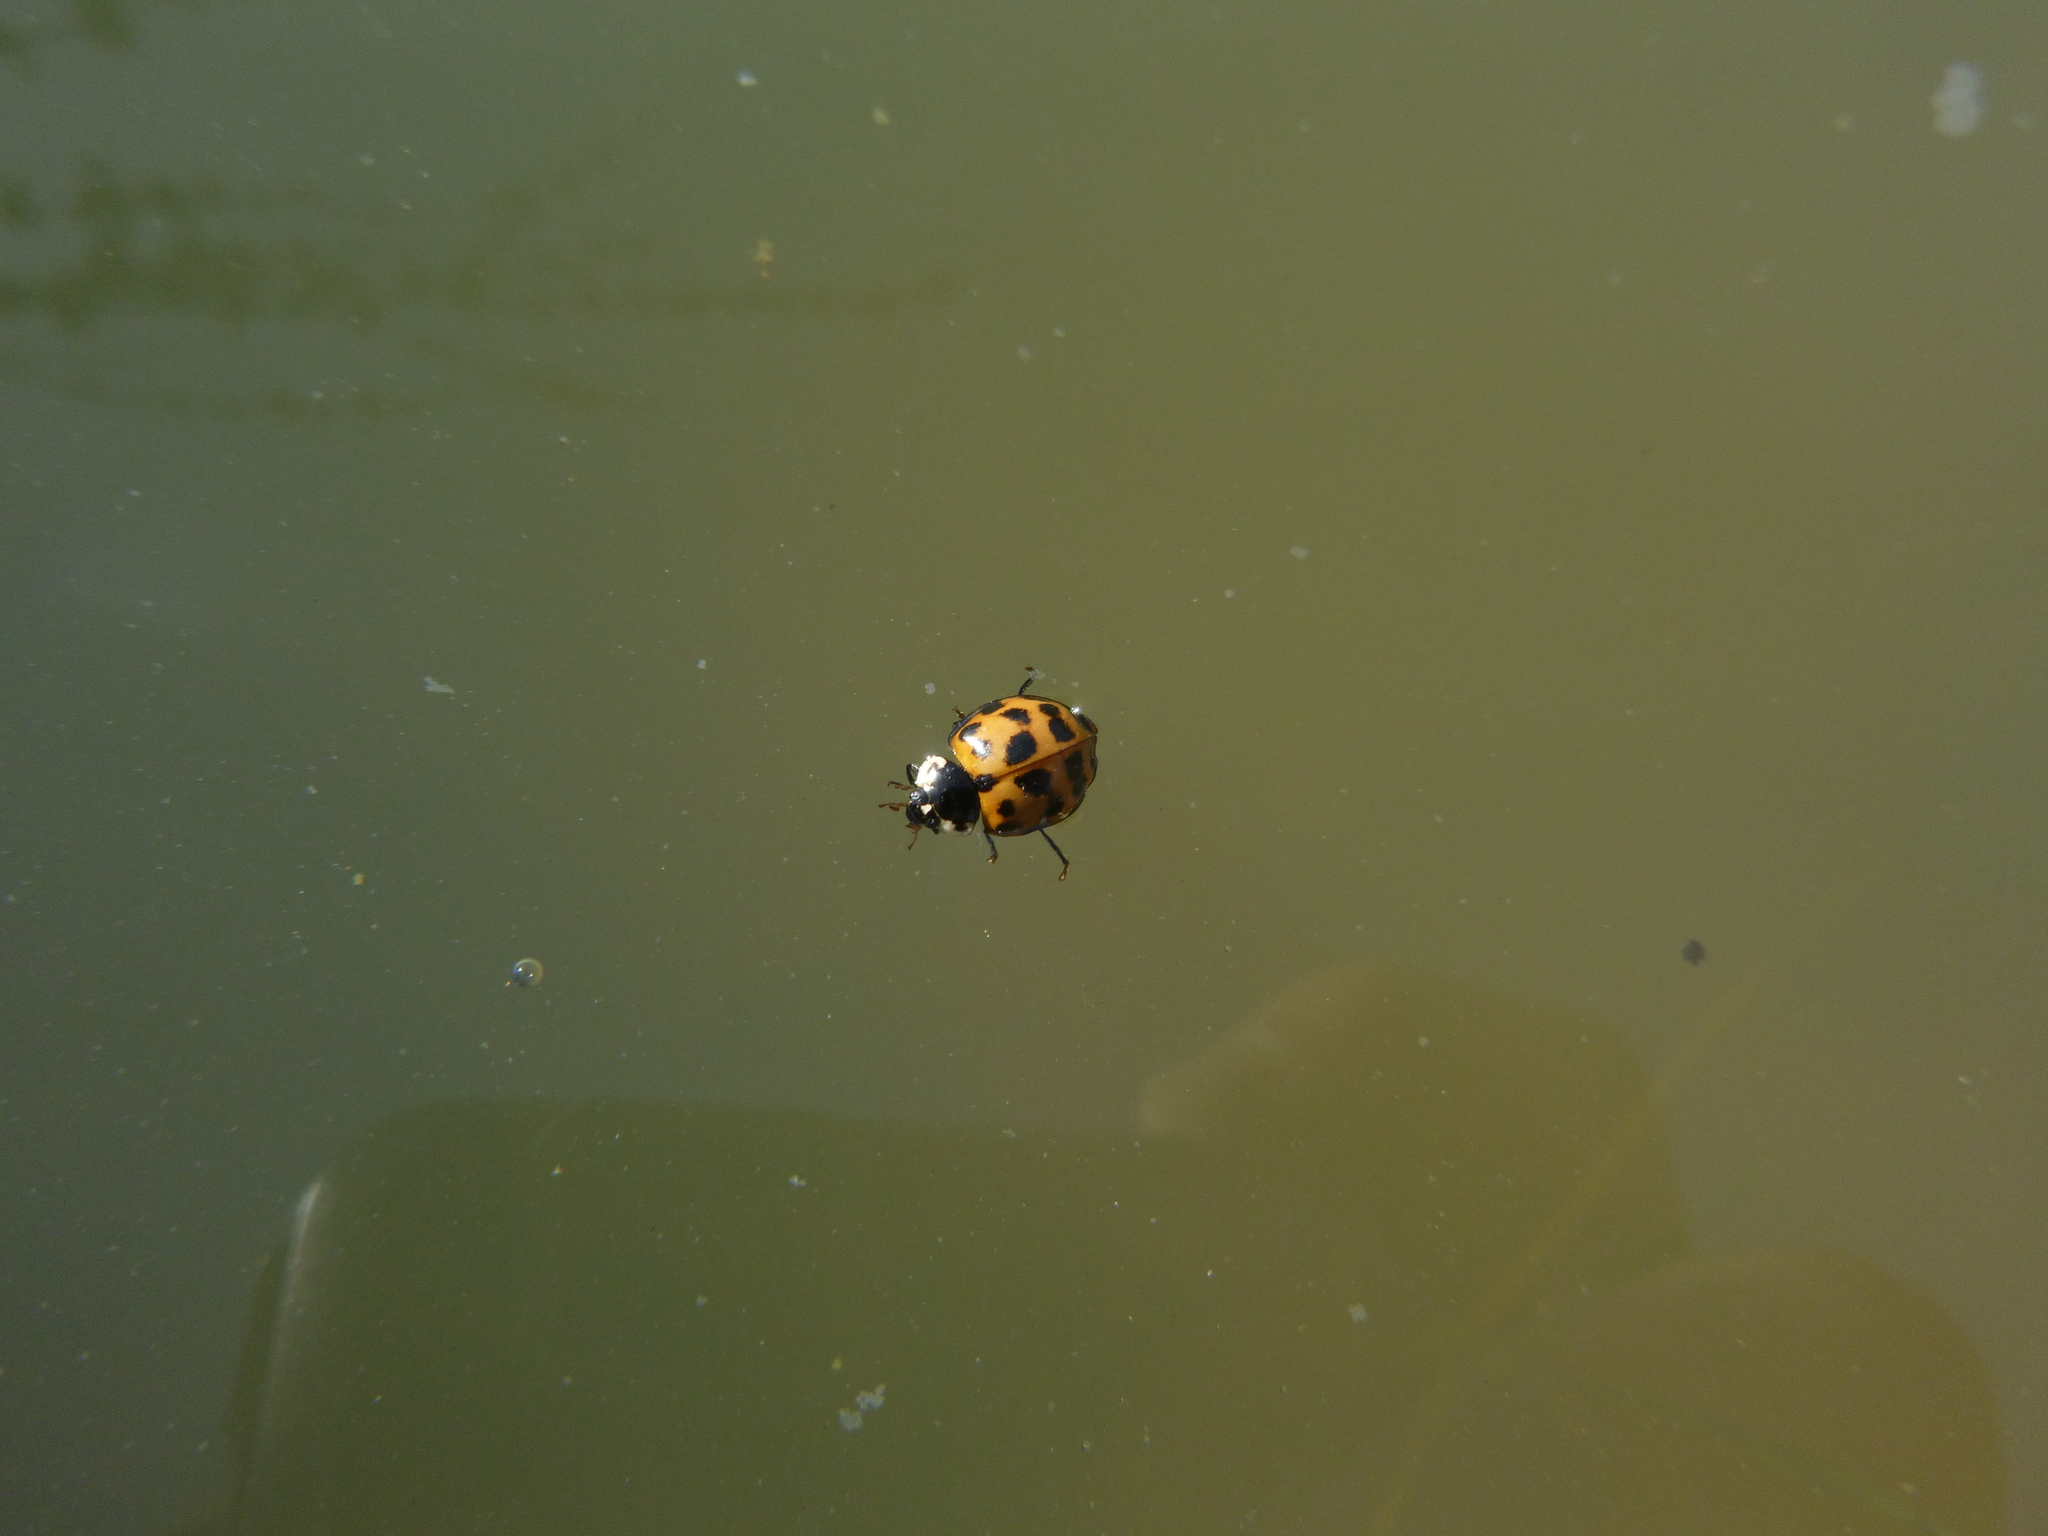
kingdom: Animalia
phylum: Arthropoda
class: Insecta
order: Coleoptera
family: Coccinellidae
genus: Harmonia
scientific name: Harmonia axyridis
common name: Harlequin ladybird
